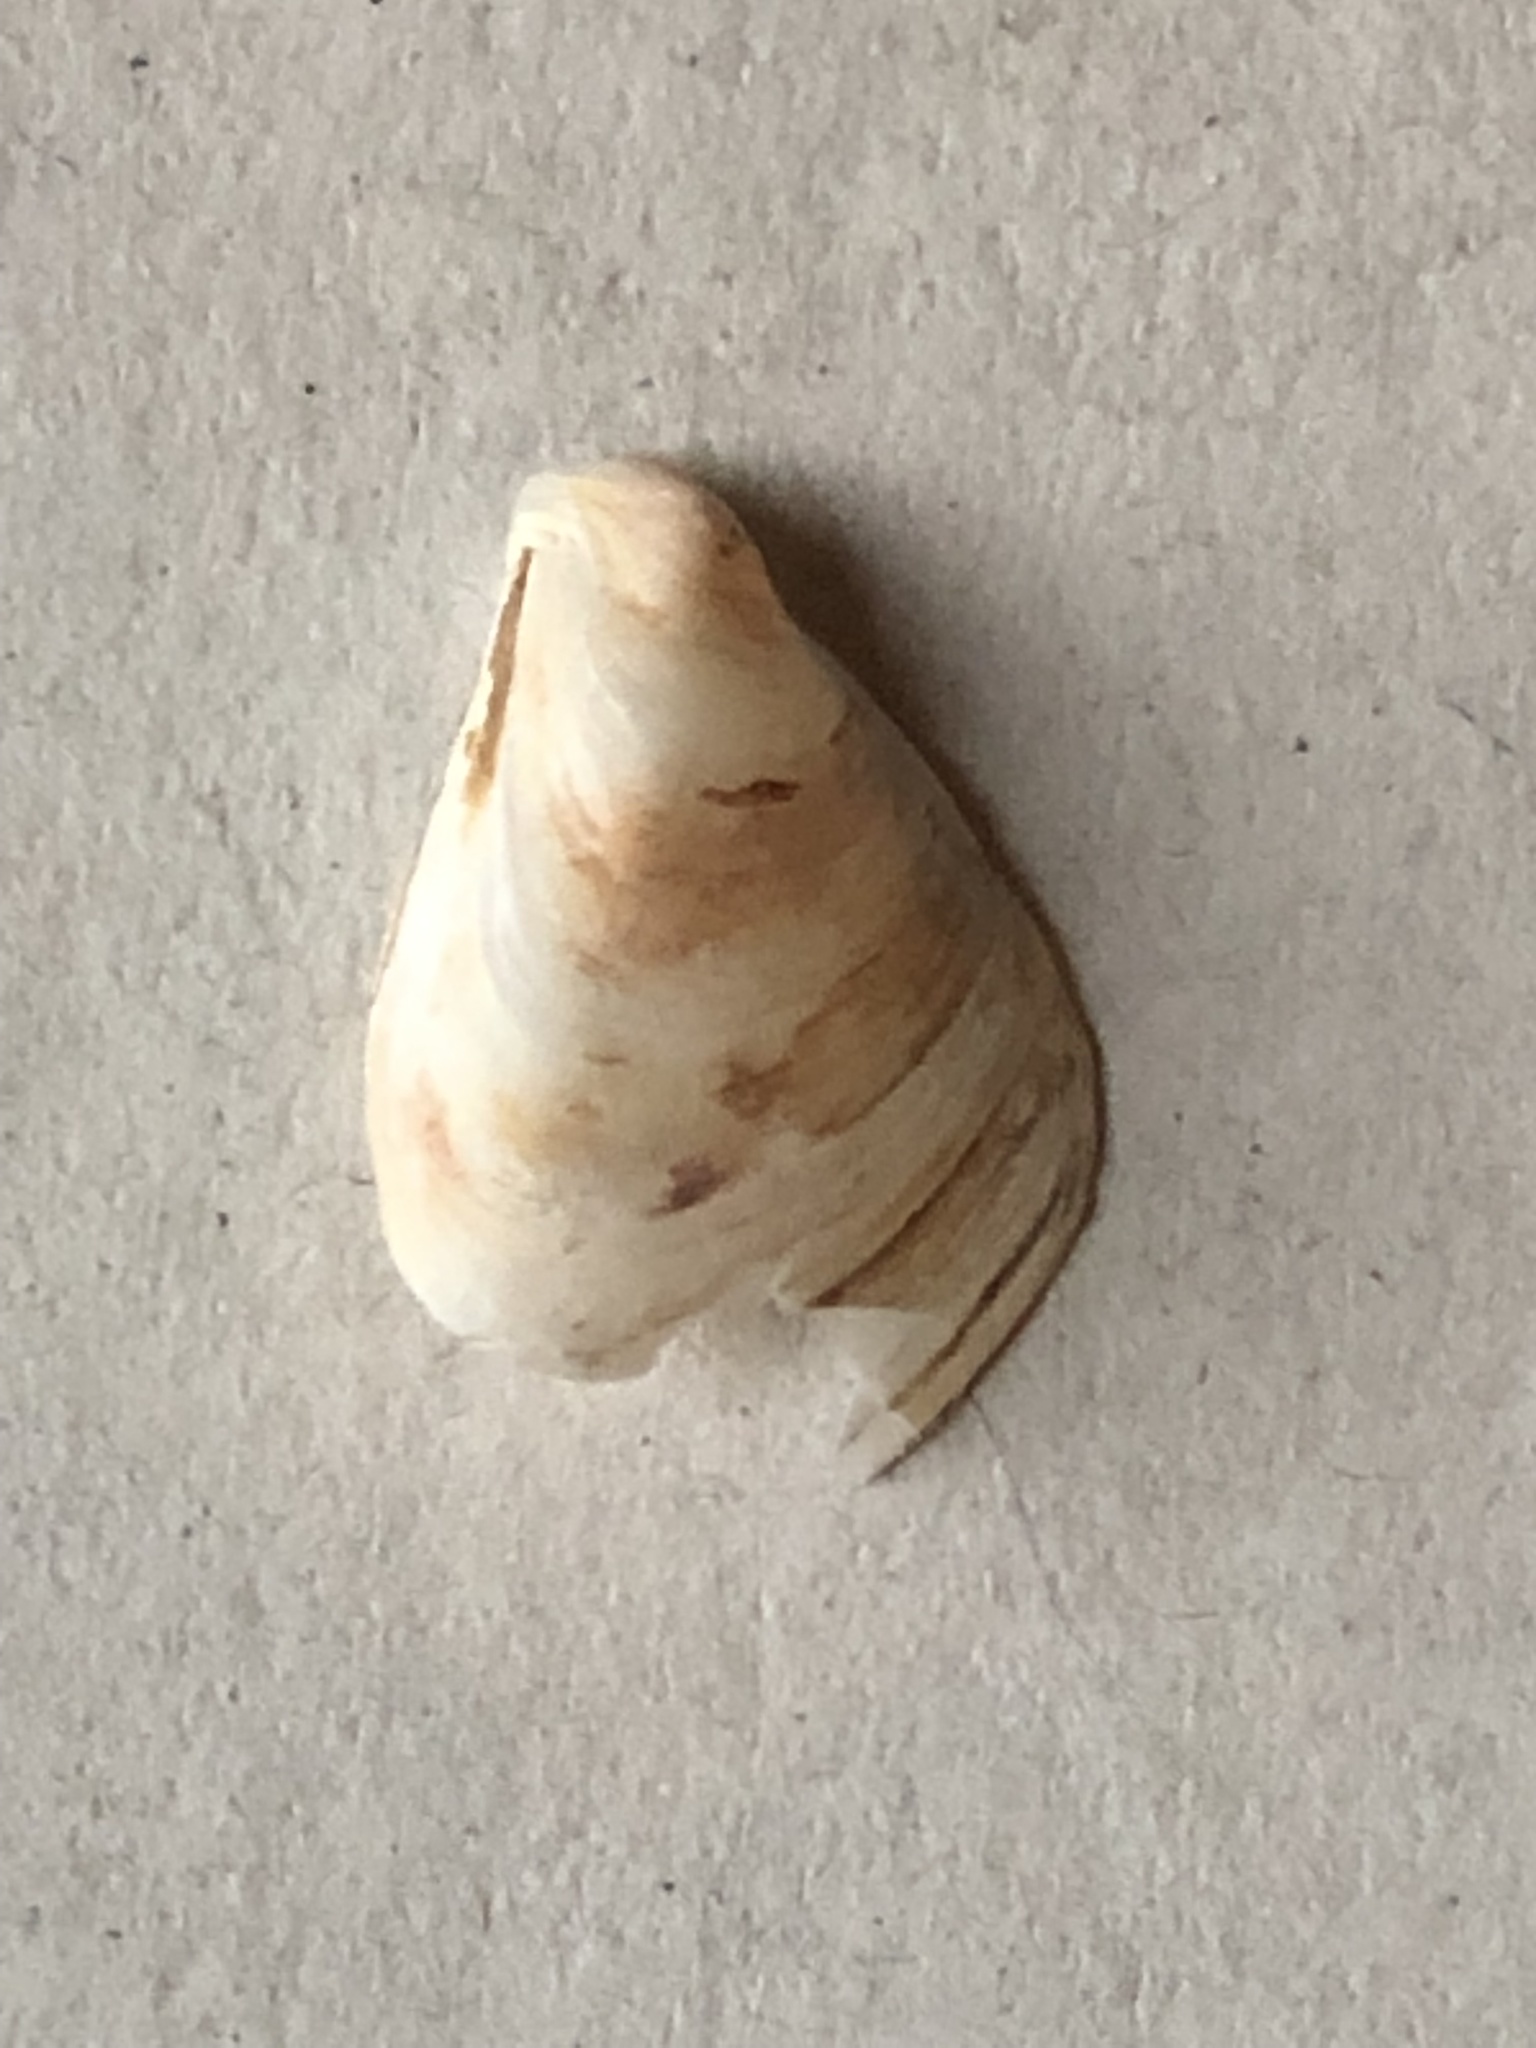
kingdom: Animalia
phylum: Mollusca
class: Bivalvia
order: Myida
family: Dreissenidae
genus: Dreissena
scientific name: Dreissena bugensis
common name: Quagga mussel
